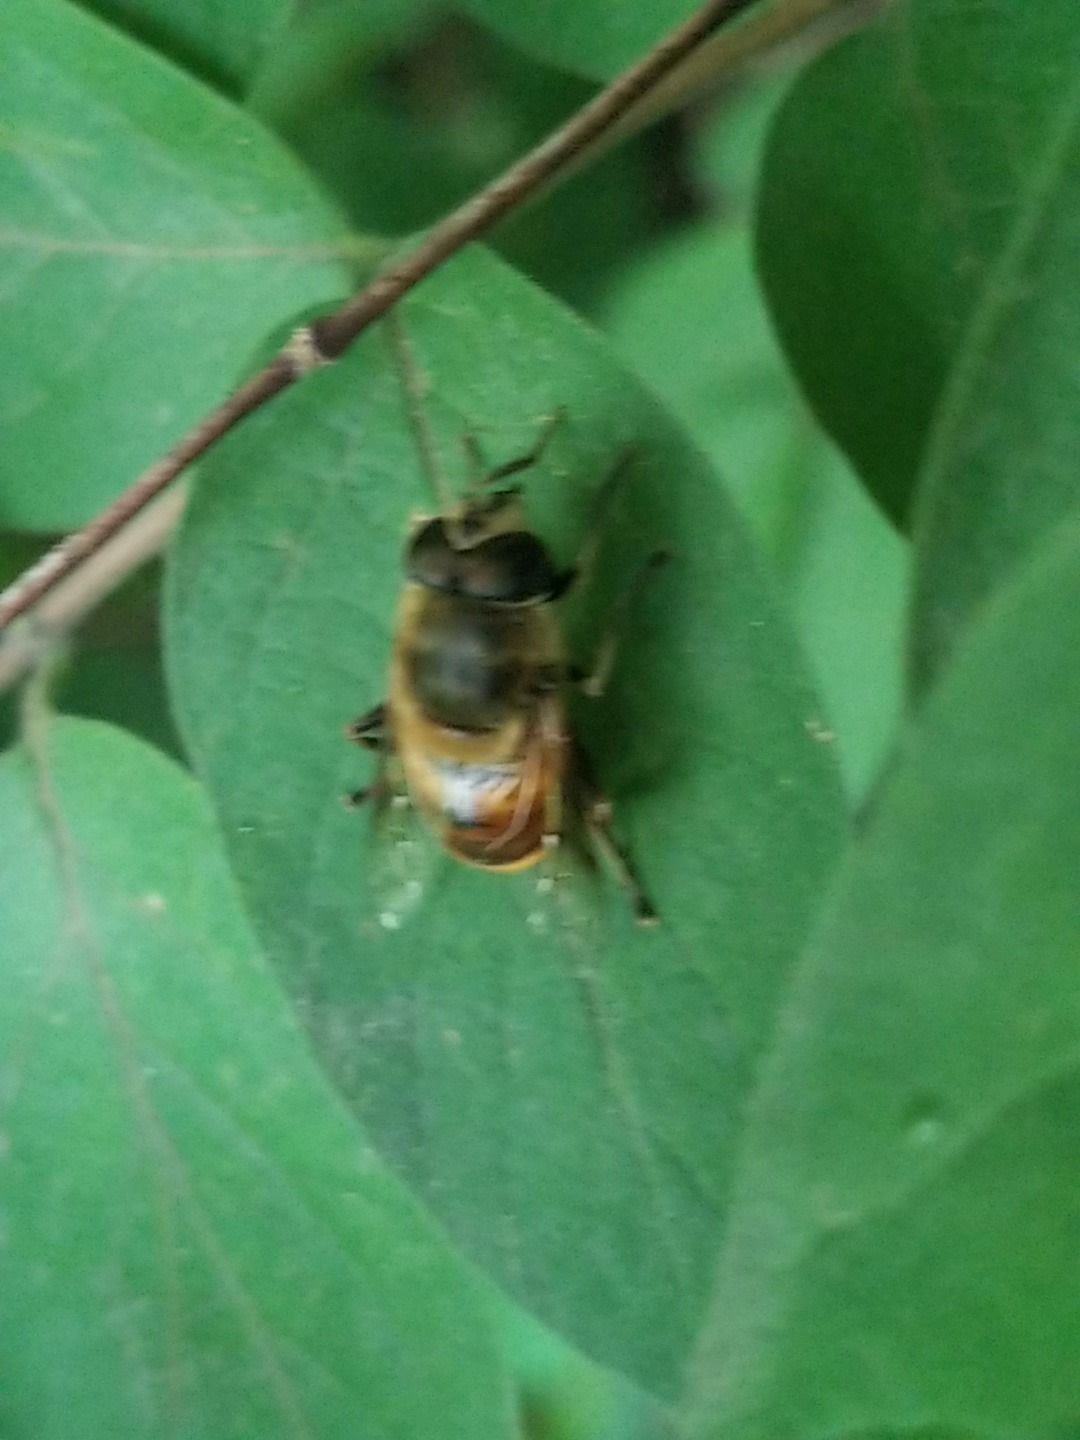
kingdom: Animalia
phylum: Arthropoda
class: Insecta
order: Diptera
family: Syrphidae
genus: Eristalis
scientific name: Eristalis tenax
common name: Drone fly
